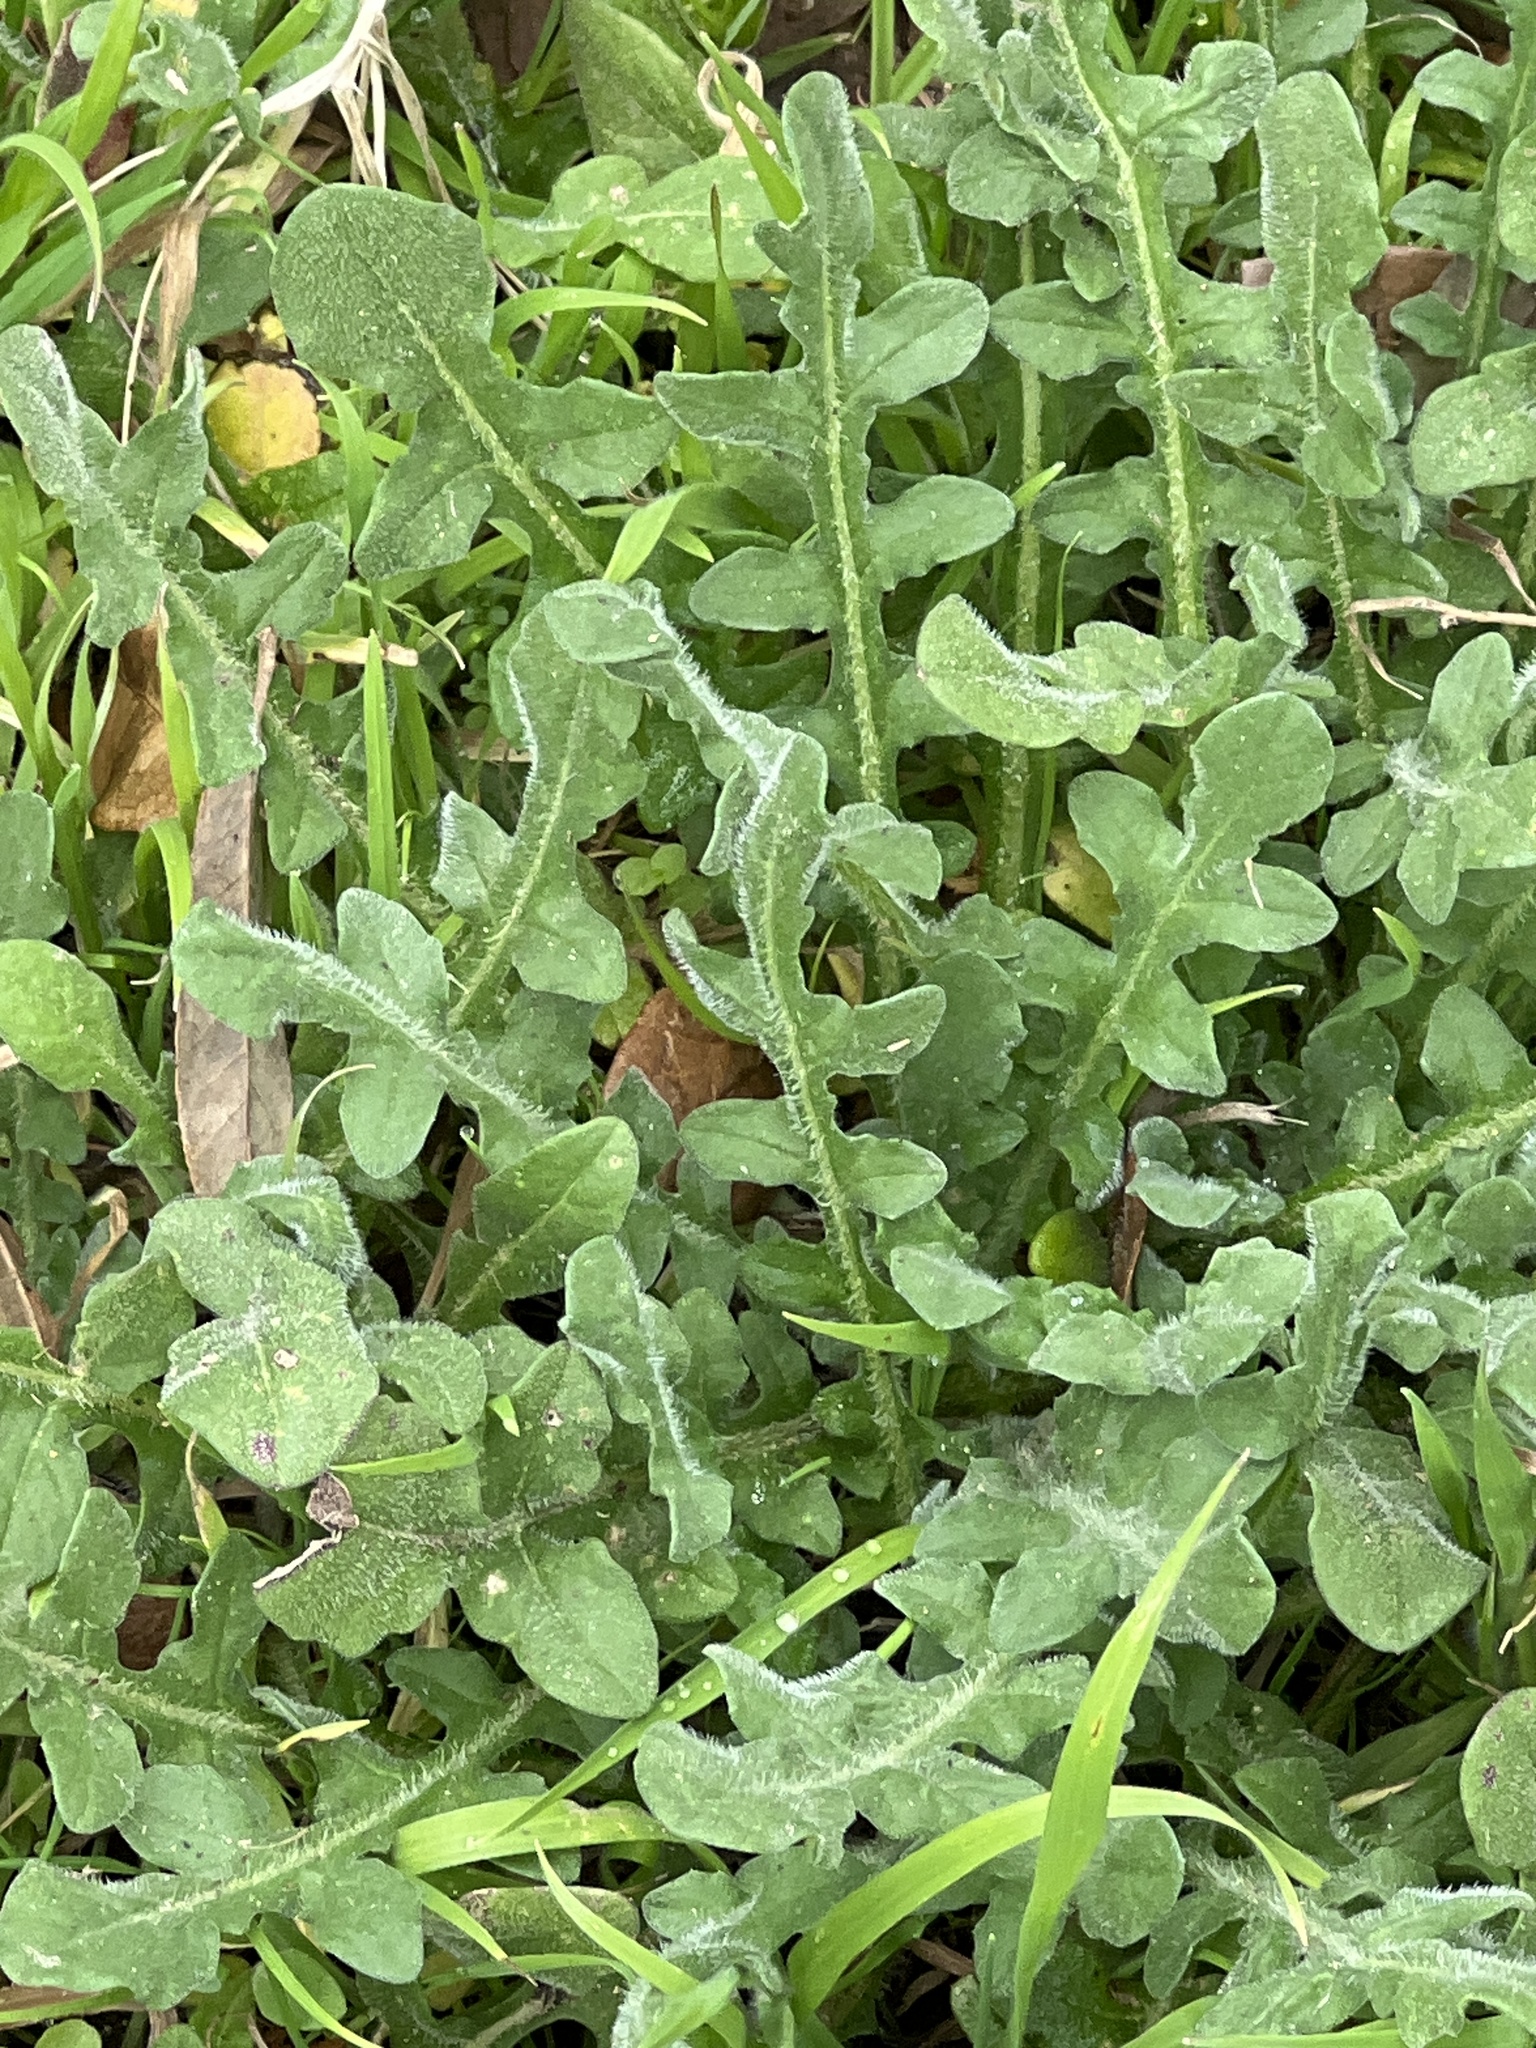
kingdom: Plantae
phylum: Tracheophyta
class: Magnoliopsida
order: Asterales
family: Asteraceae
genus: Centaurea
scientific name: Centaurea melitensis
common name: Maltese star-thistle
